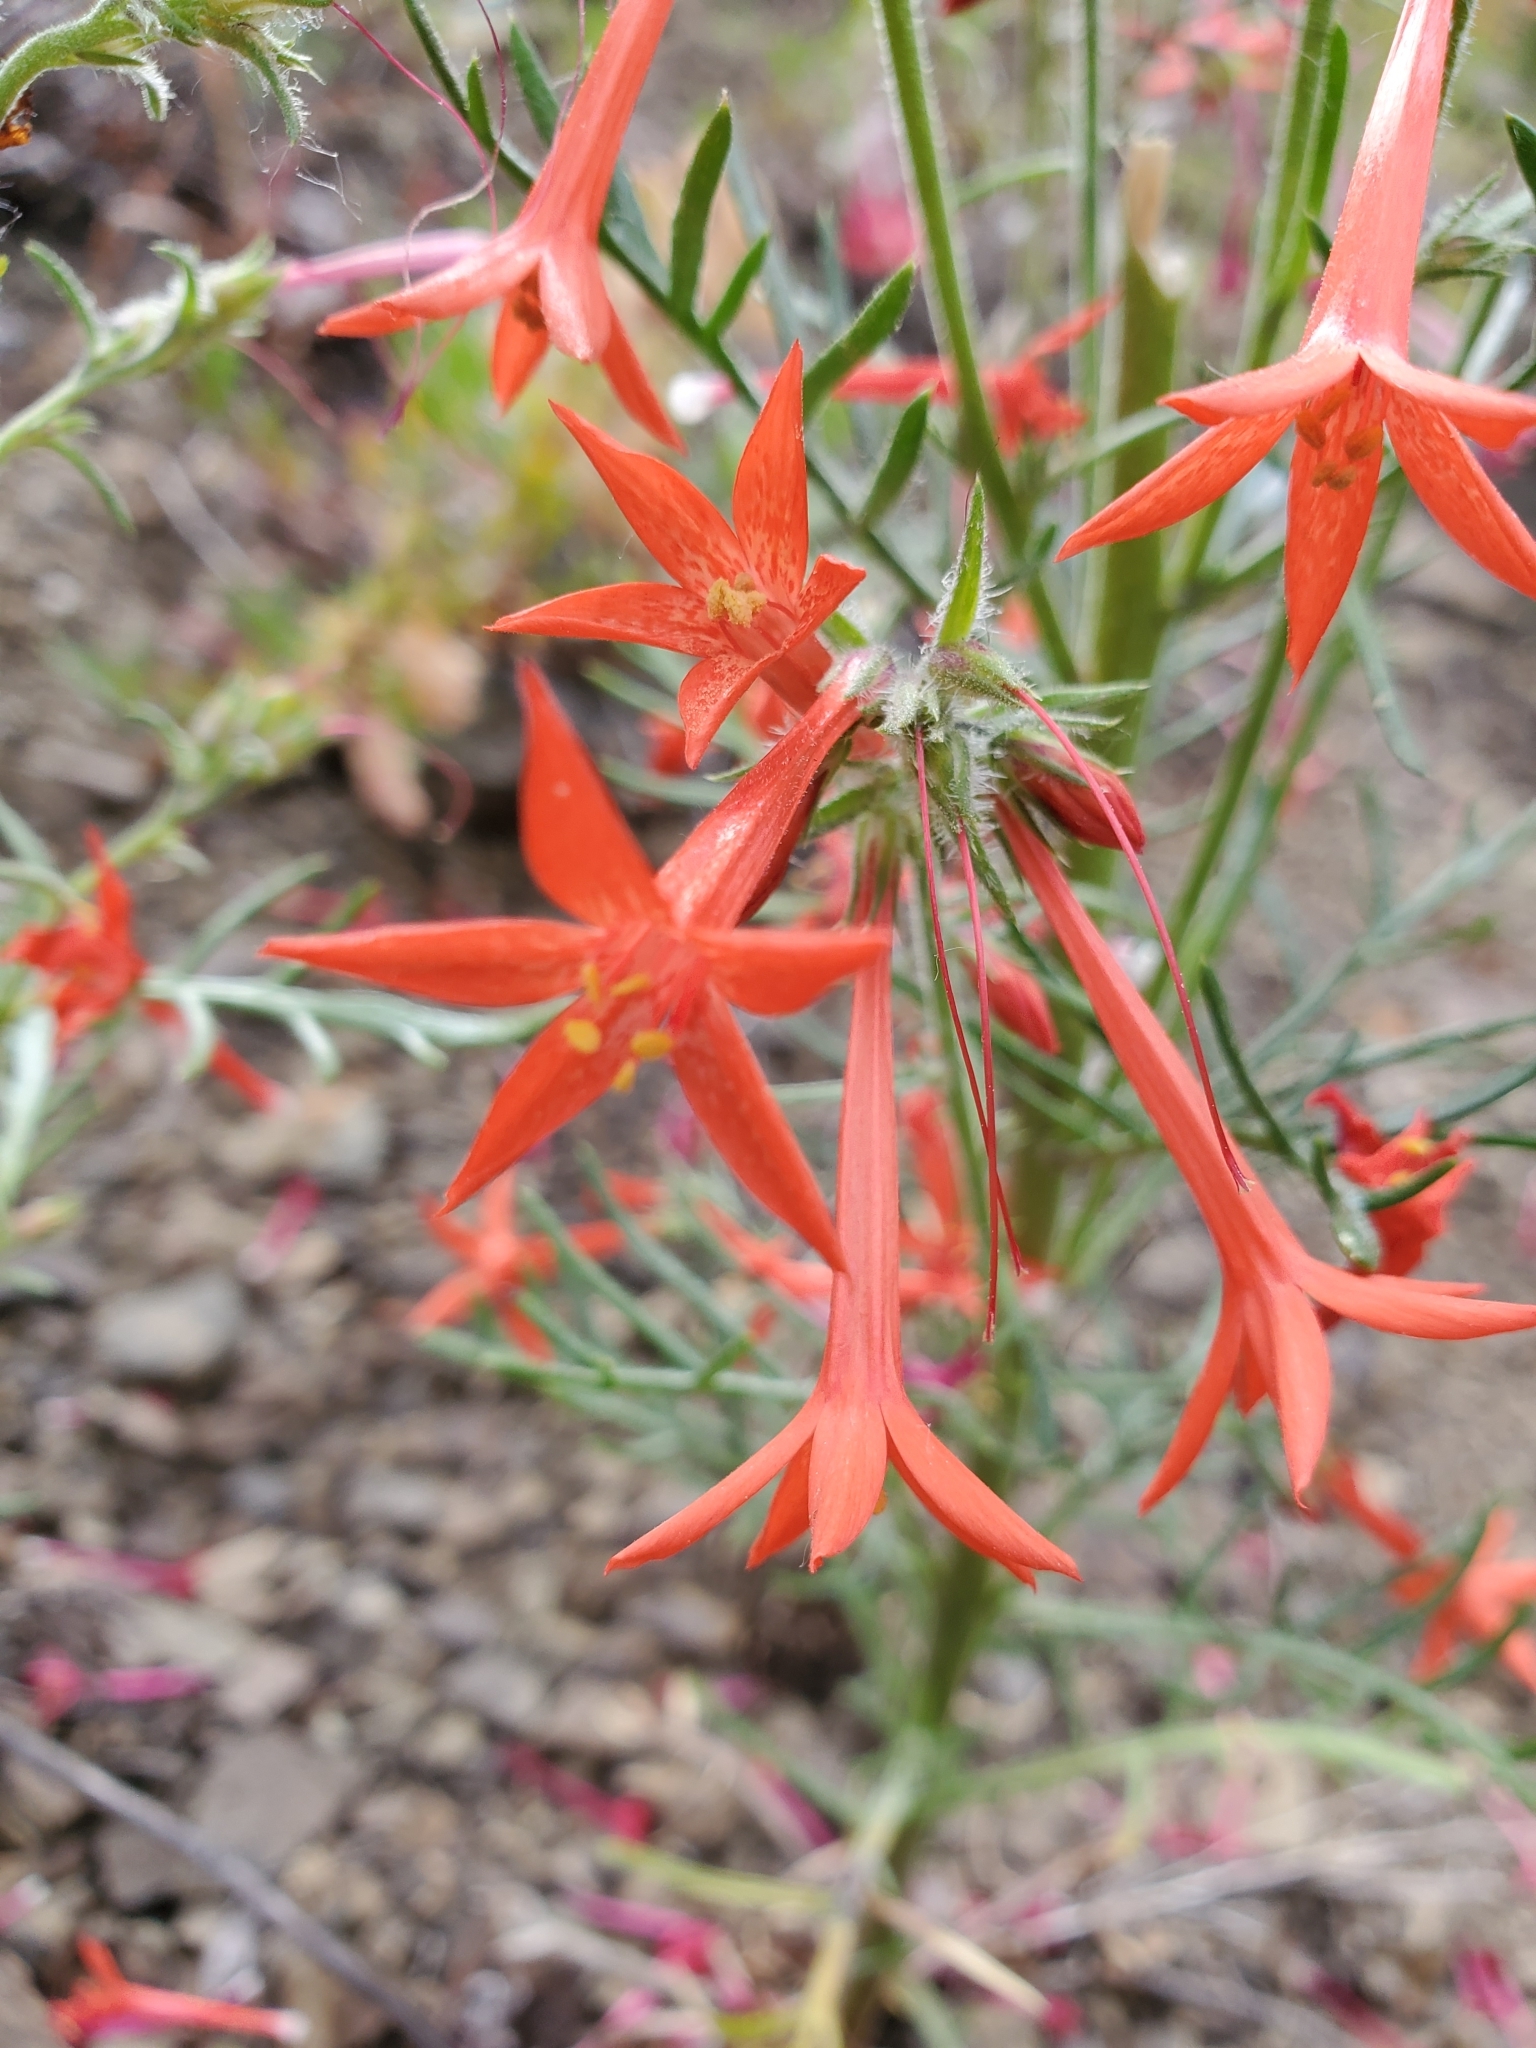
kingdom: Plantae
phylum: Tracheophyta
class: Magnoliopsida
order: Ericales
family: Polemoniaceae
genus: Ipomopsis
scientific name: Ipomopsis aggregata
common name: Scarlet gilia
